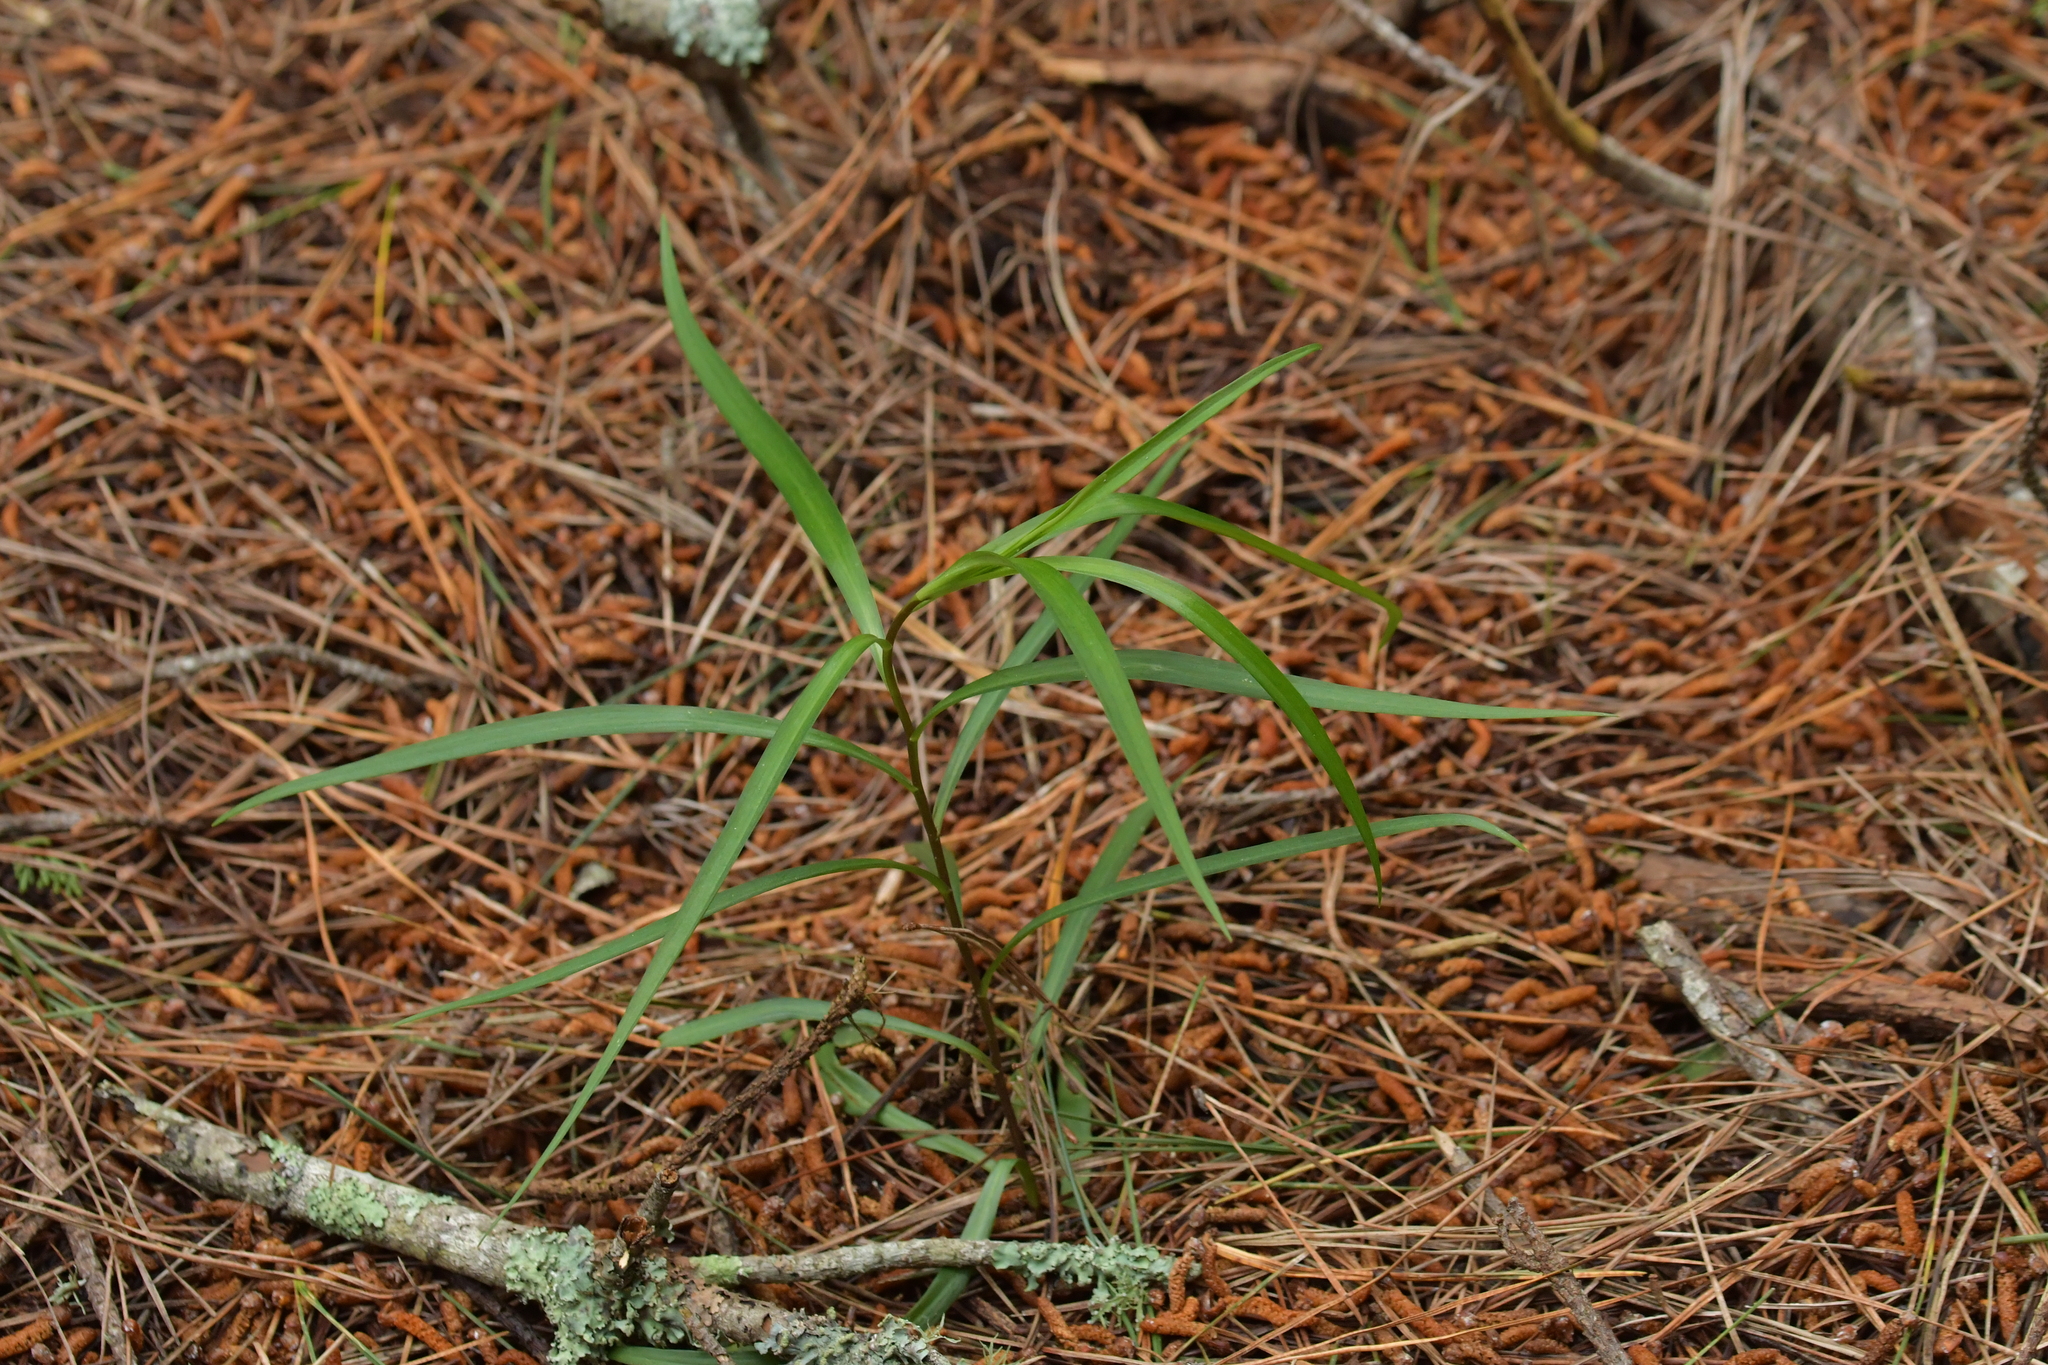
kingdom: Plantae
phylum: Tracheophyta
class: Liliopsida
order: Liliales
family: Liliaceae
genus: Lilium
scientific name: Lilium formosanum
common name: Formosa lily
